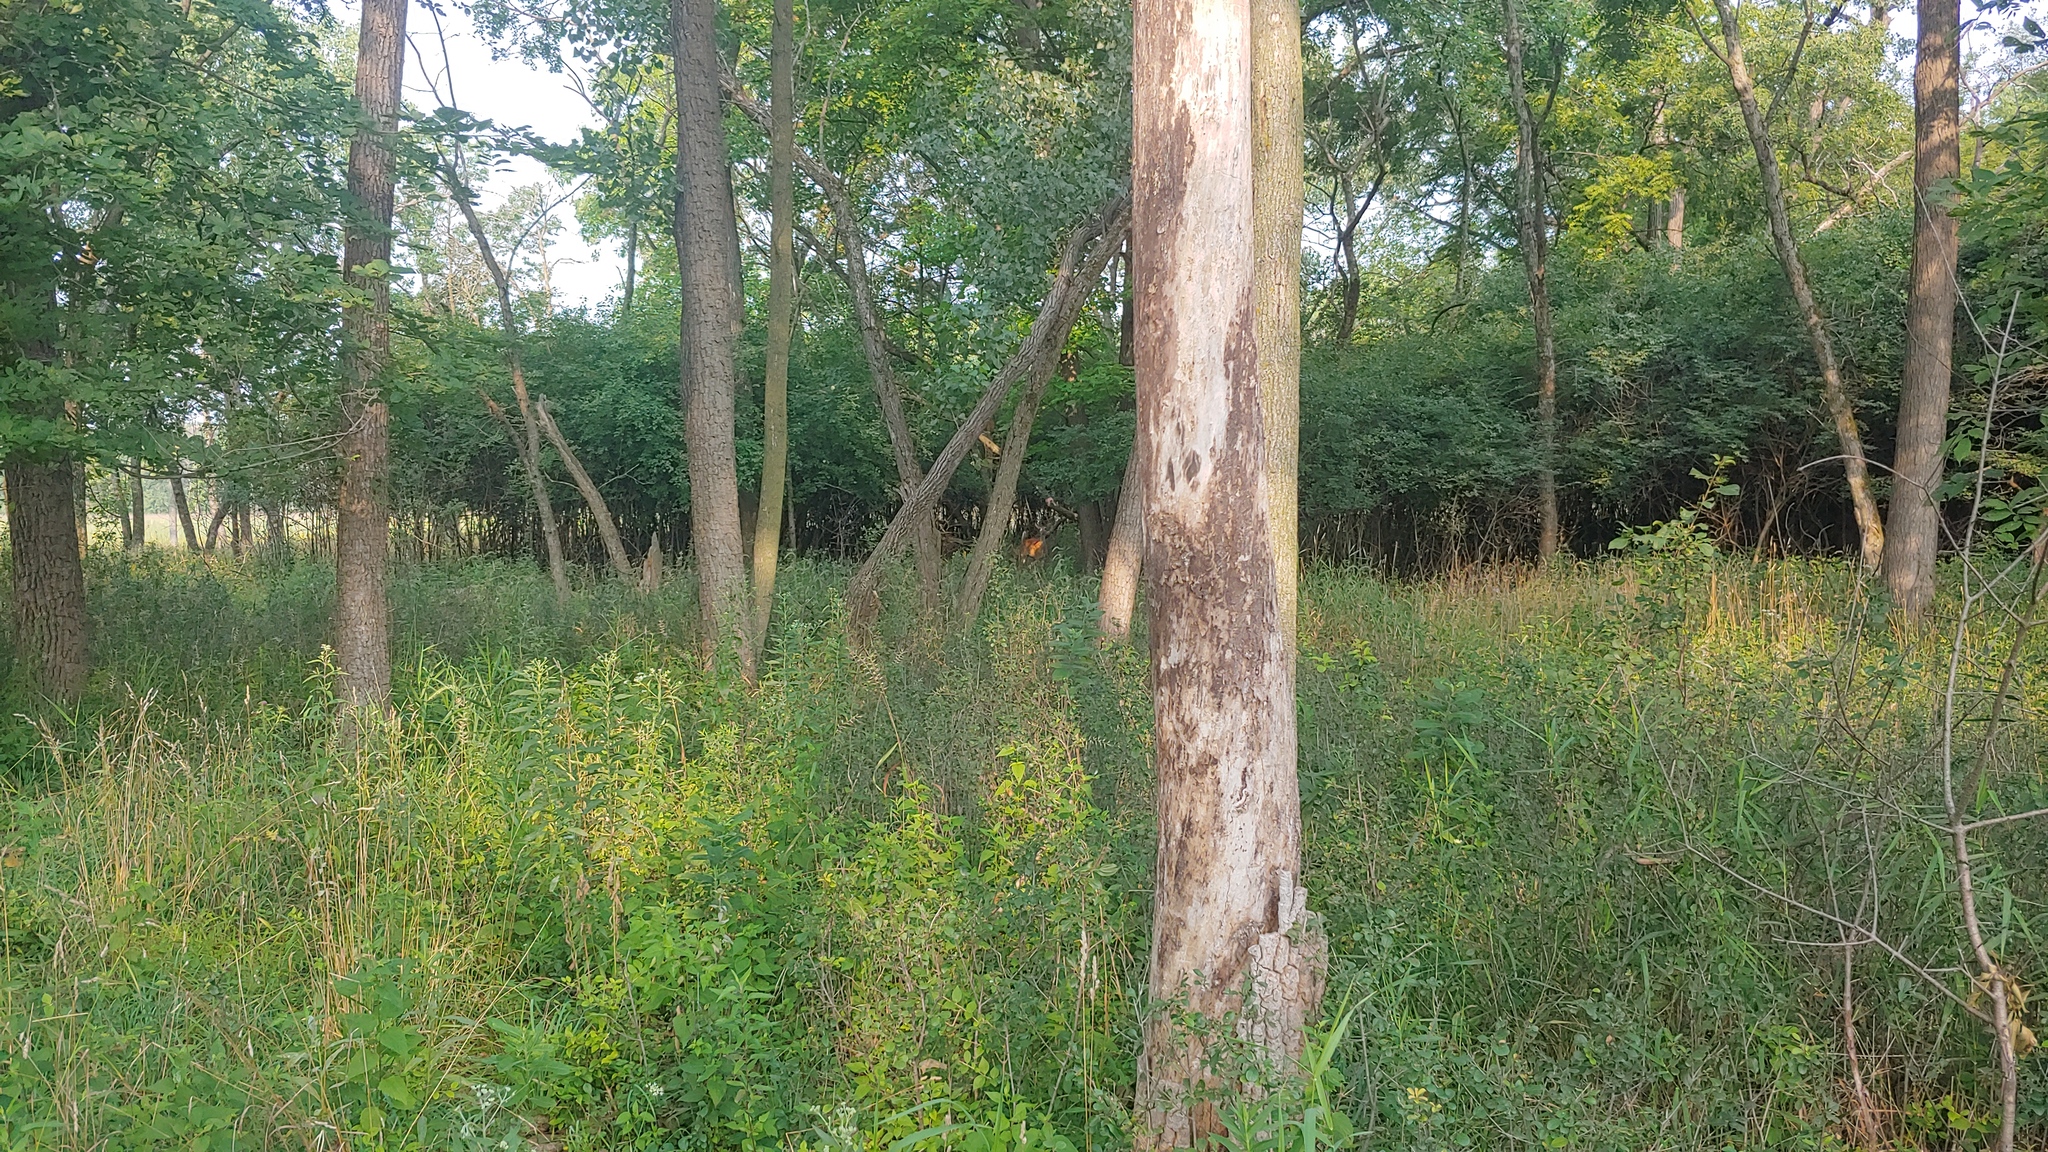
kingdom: Animalia
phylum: Chordata
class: Mammalia
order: Artiodactyla
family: Cervidae
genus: Odocoileus
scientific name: Odocoileus virginianus
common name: White-tailed deer
